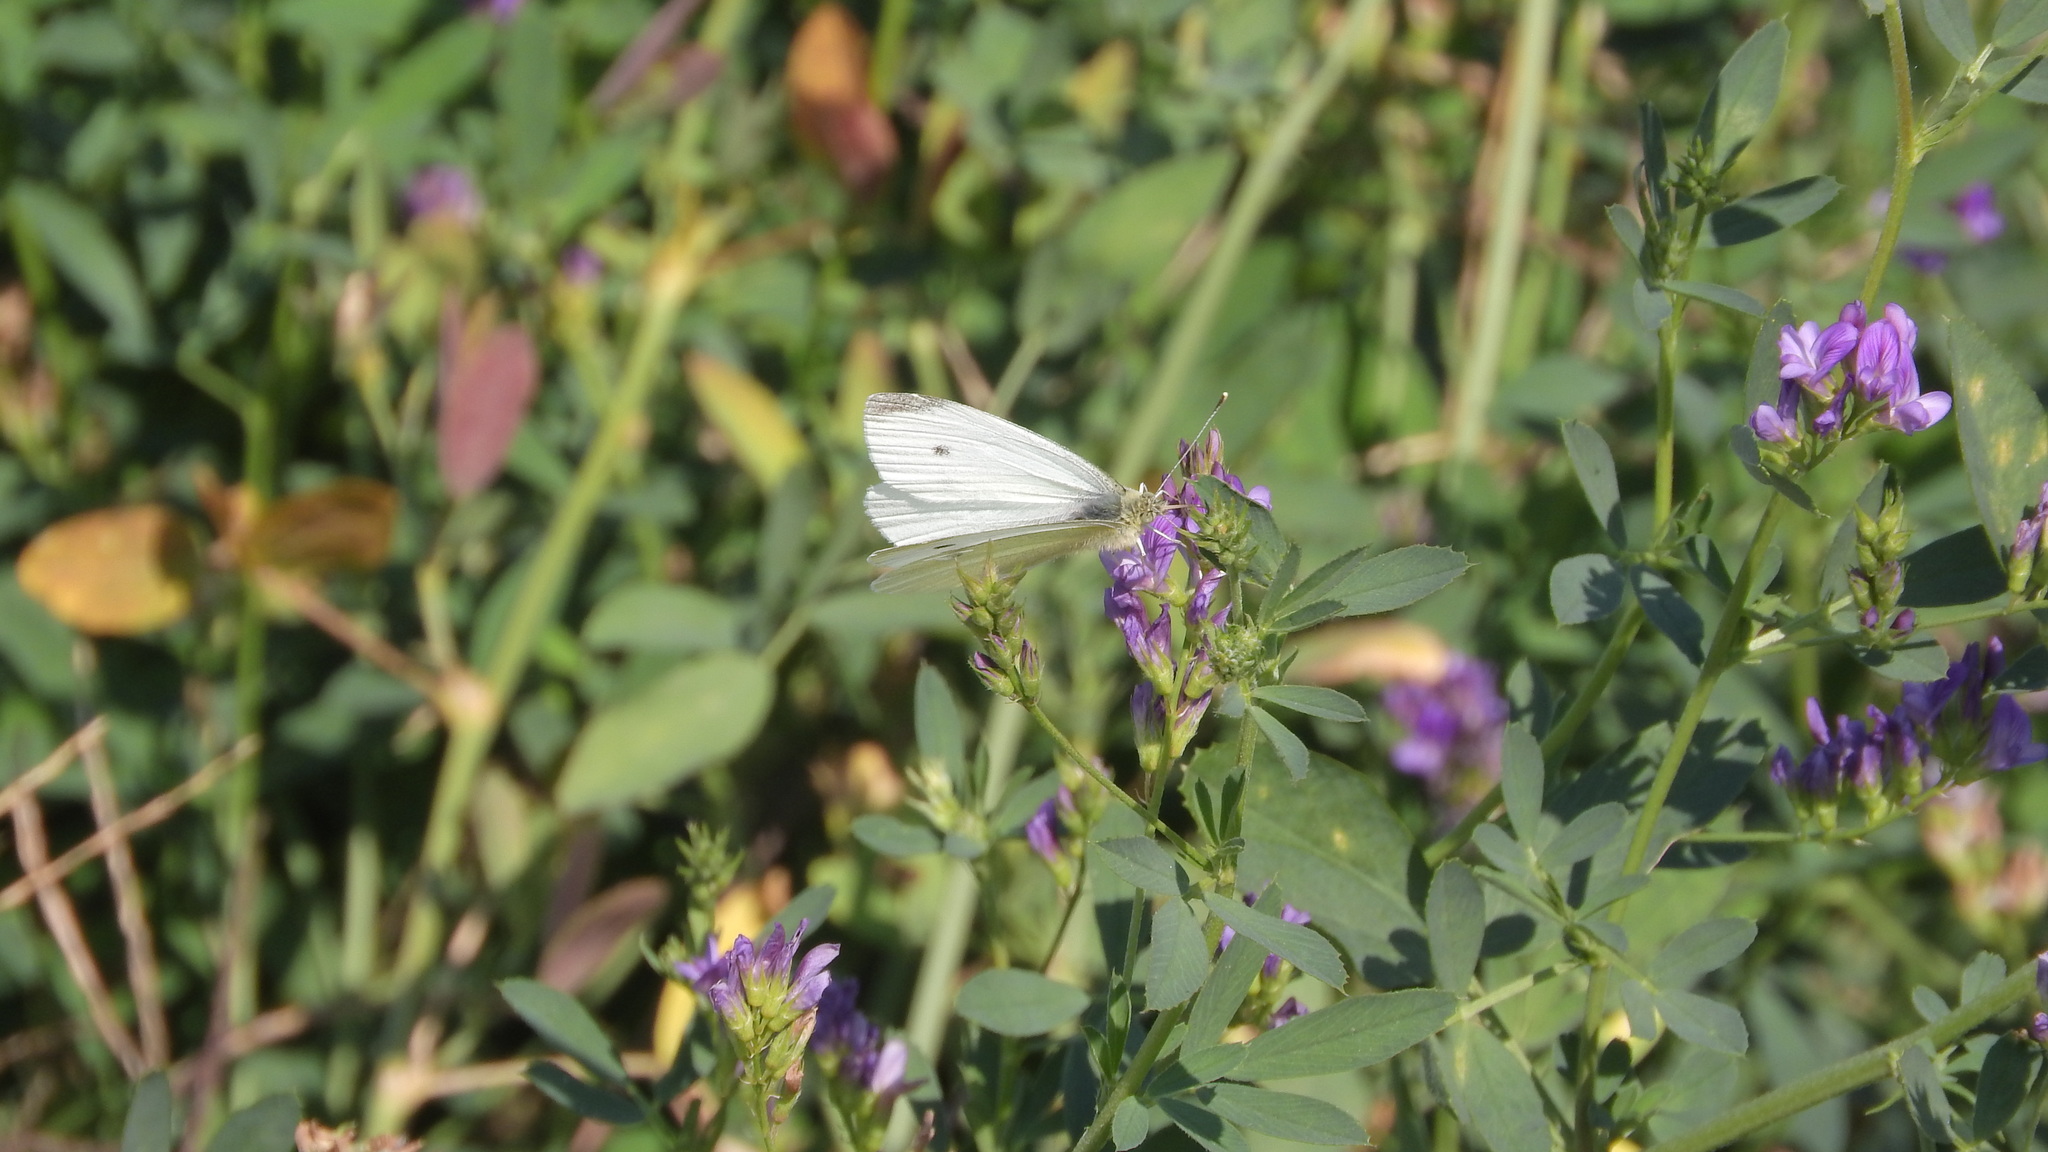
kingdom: Animalia
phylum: Arthropoda
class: Insecta
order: Lepidoptera
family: Pieridae
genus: Pieris
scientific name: Pieris rapae
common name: Small white
